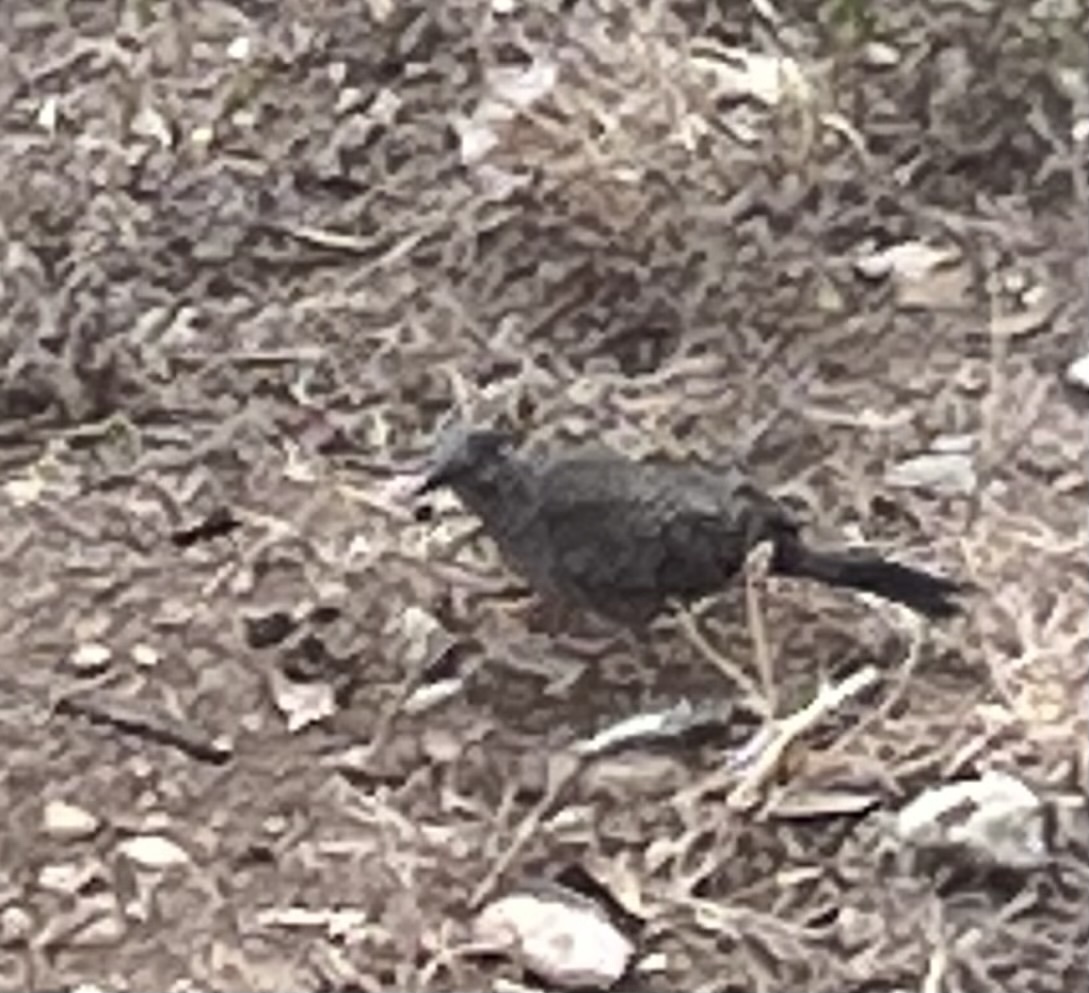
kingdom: Animalia
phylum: Chordata
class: Aves
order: Columbiformes
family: Columbidae
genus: Columbina
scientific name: Columbina inca
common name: Inca dove
